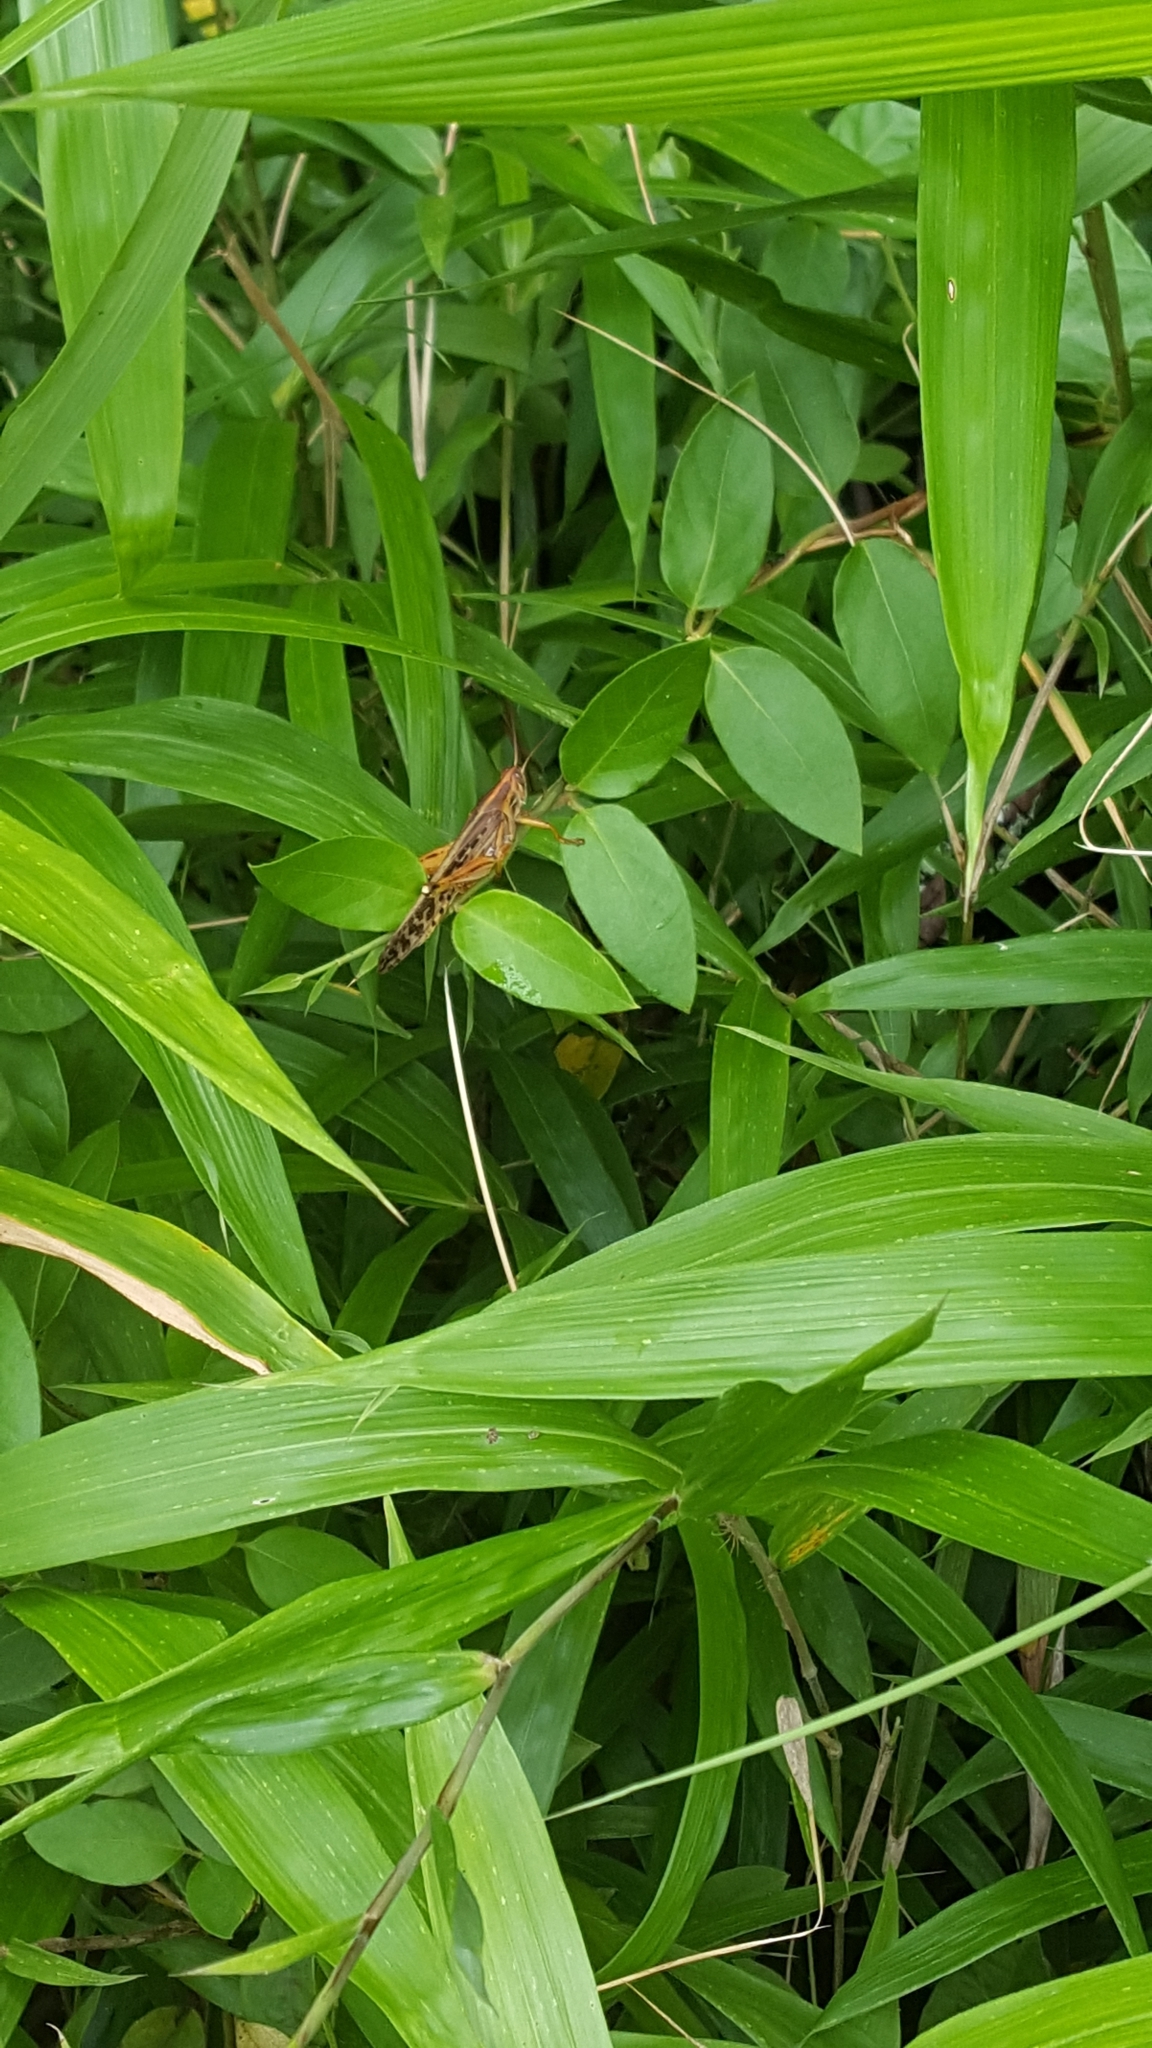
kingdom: Animalia
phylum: Arthropoda
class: Insecta
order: Orthoptera
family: Acrididae
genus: Schistocerca
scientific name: Schistocerca americana
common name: American bird locust
